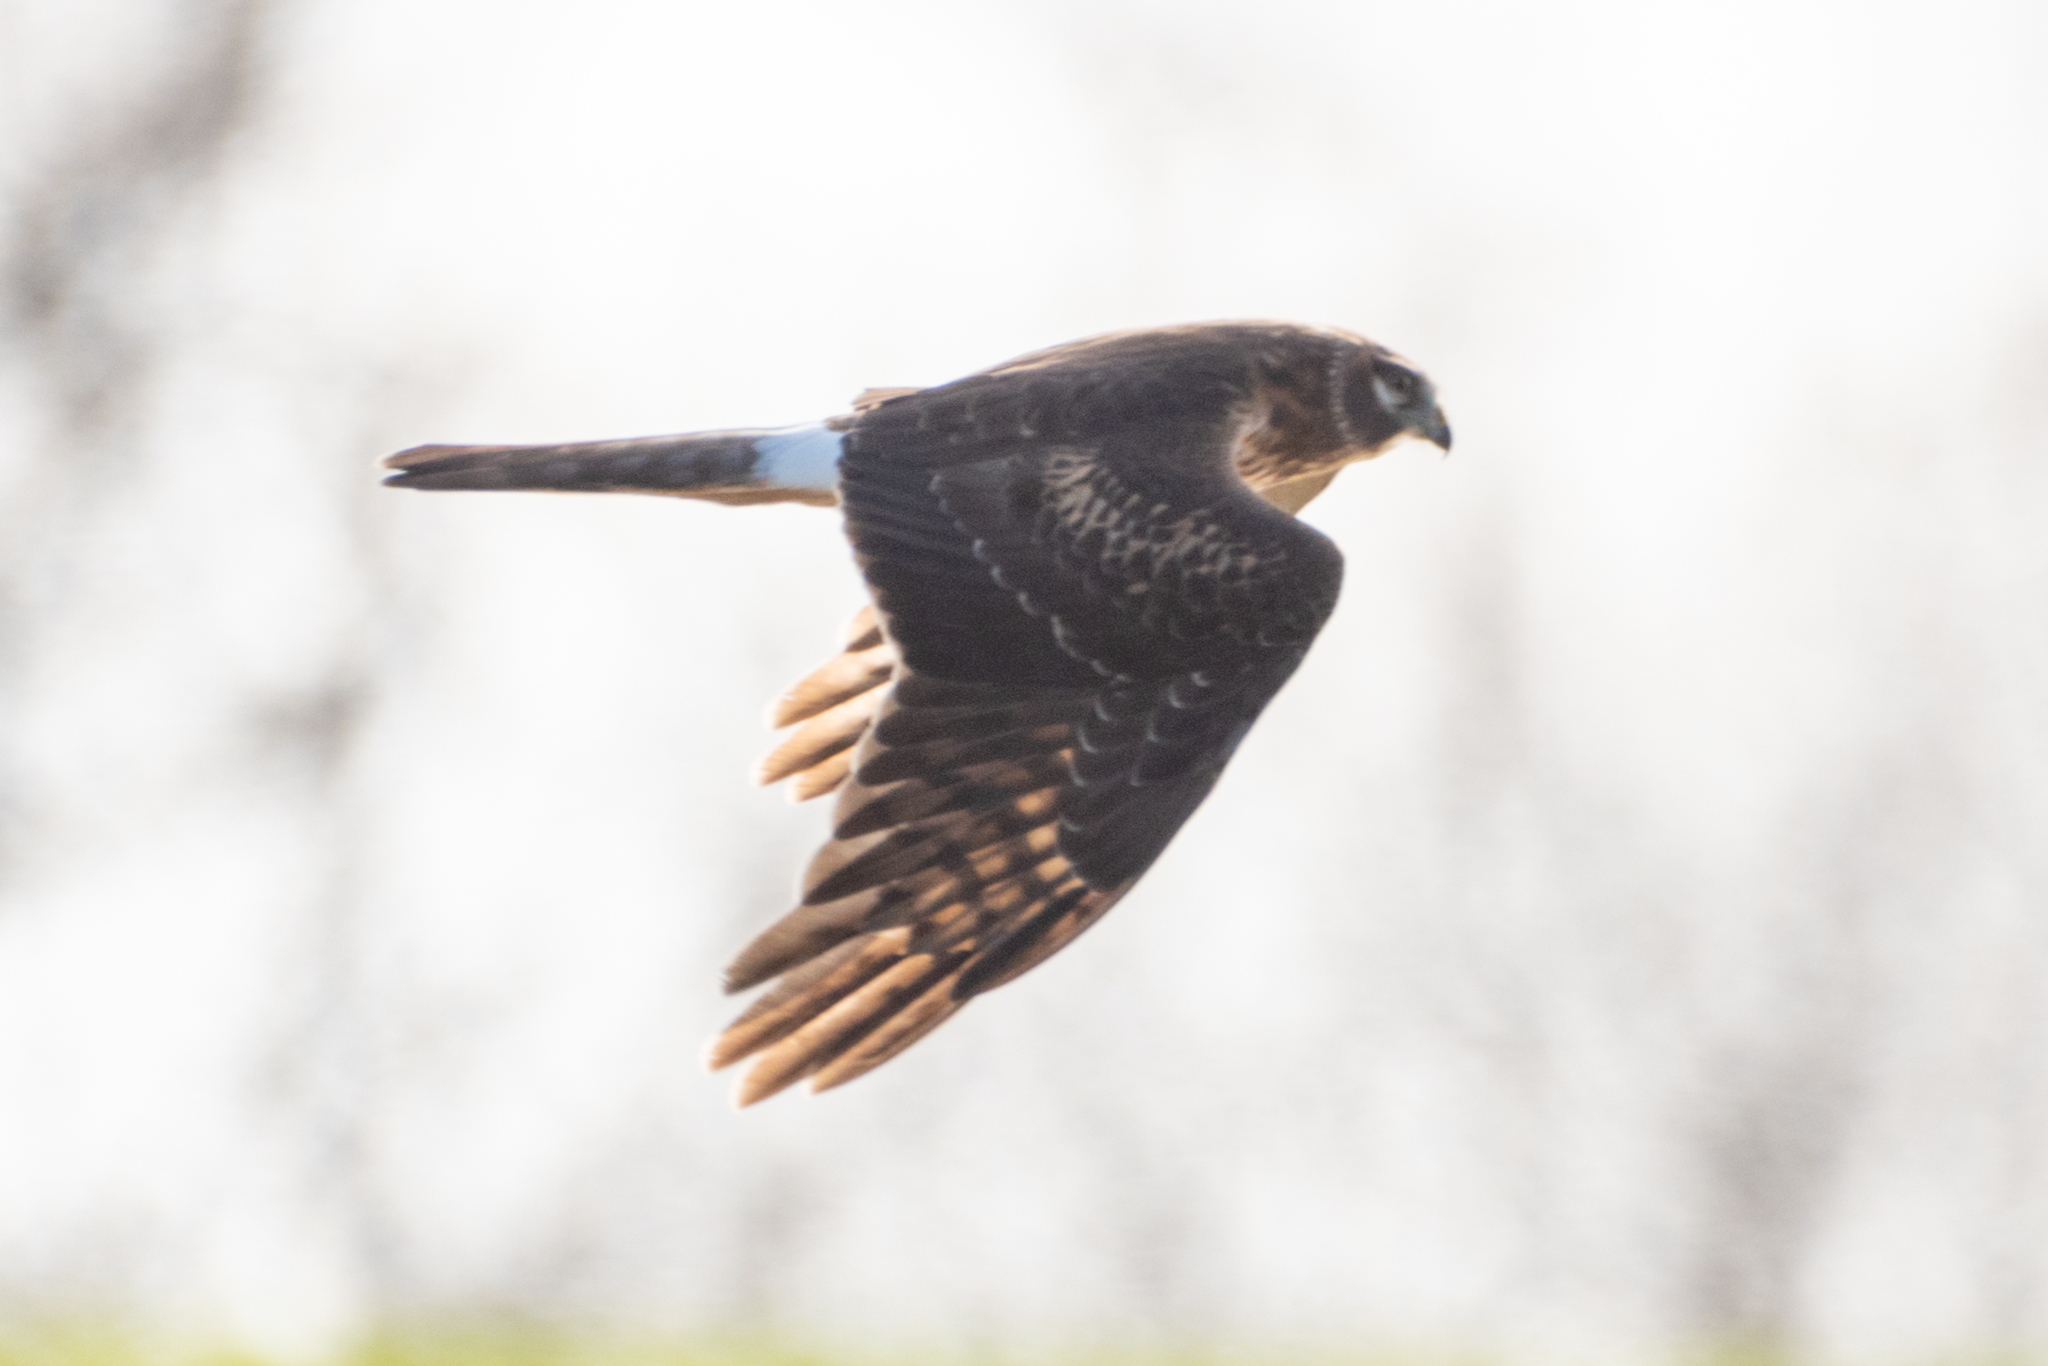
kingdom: Animalia
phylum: Chordata
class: Aves
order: Accipitriformes
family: Accipitridae
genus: Circus
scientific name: Circus cyaneus
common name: Hen harrier
